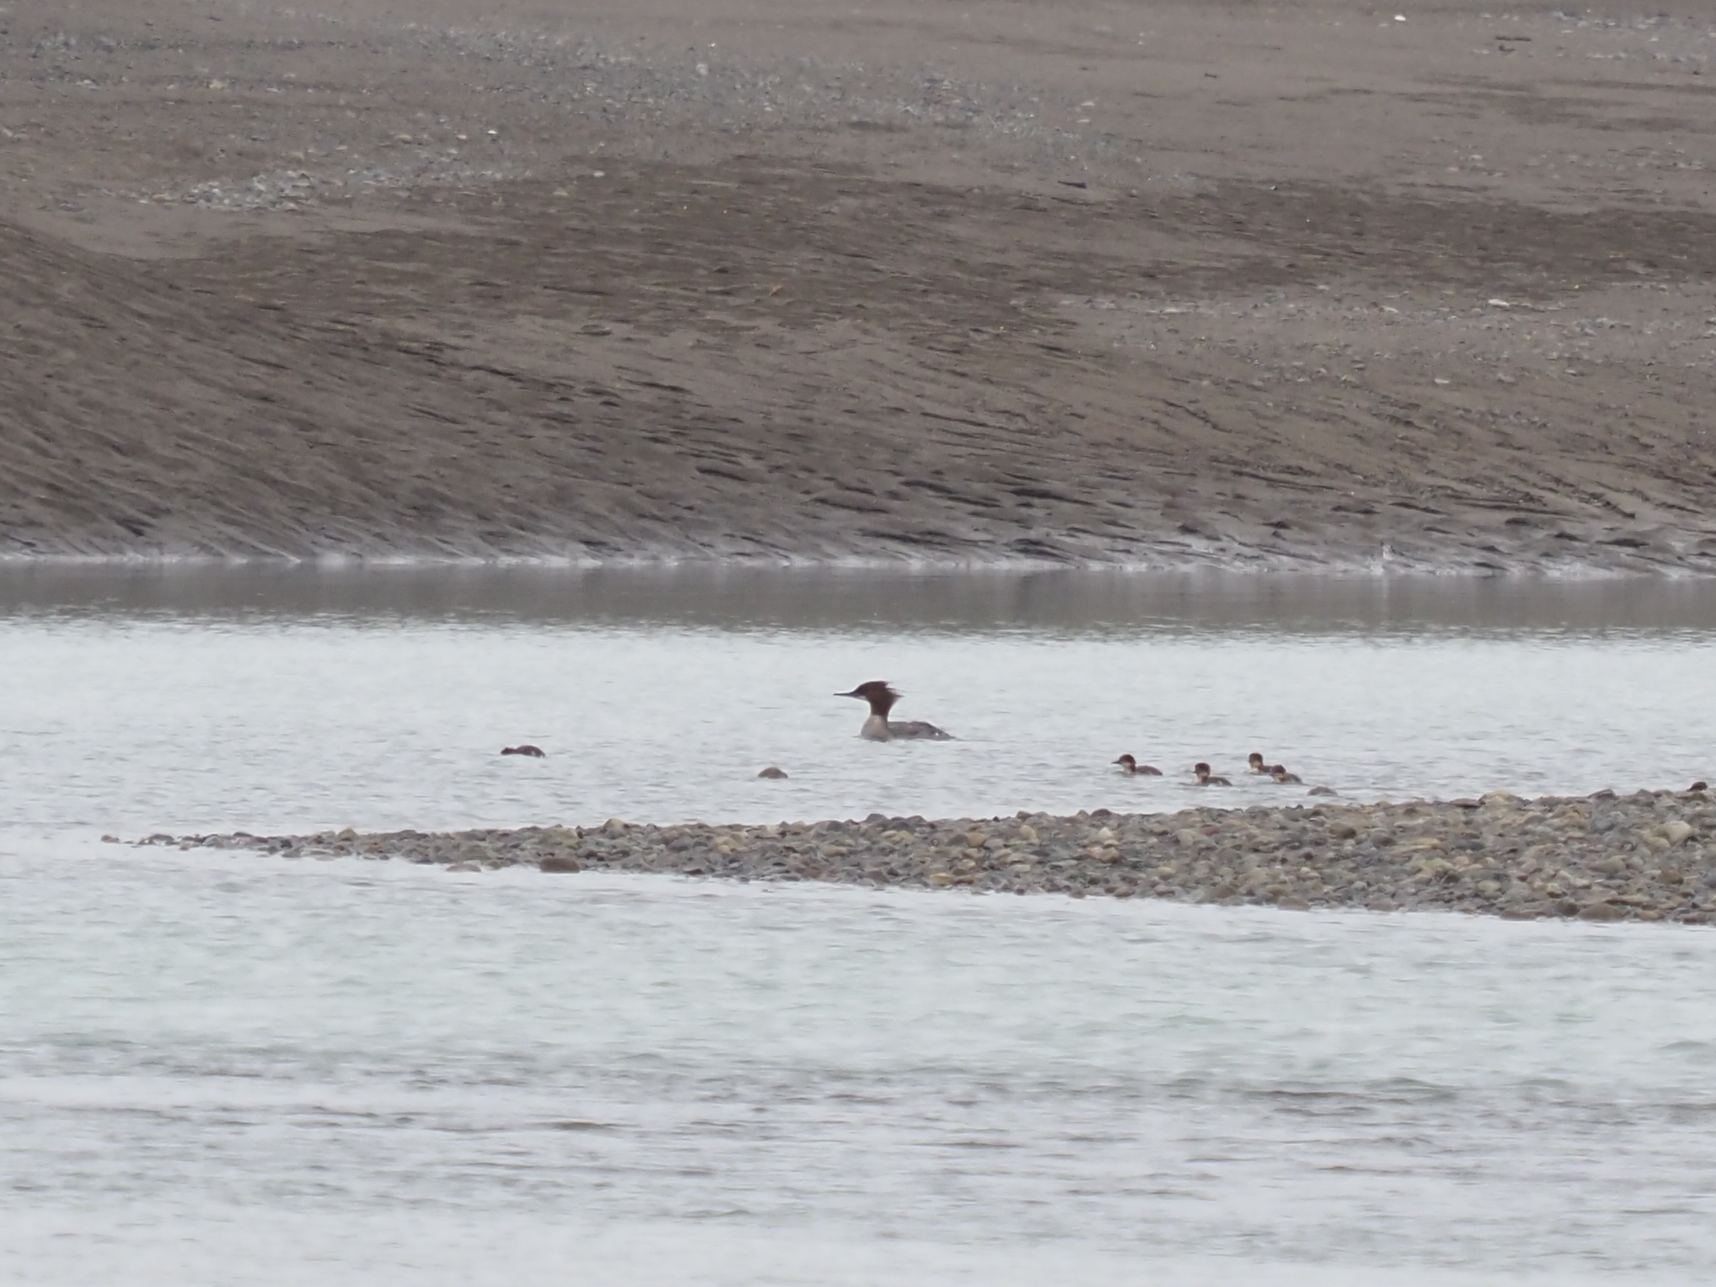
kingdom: Animalia
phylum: Chordata
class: Aves
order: Anseriformes
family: Anatidae
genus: Mergus
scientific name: Mergus merganser
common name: Common merganser
